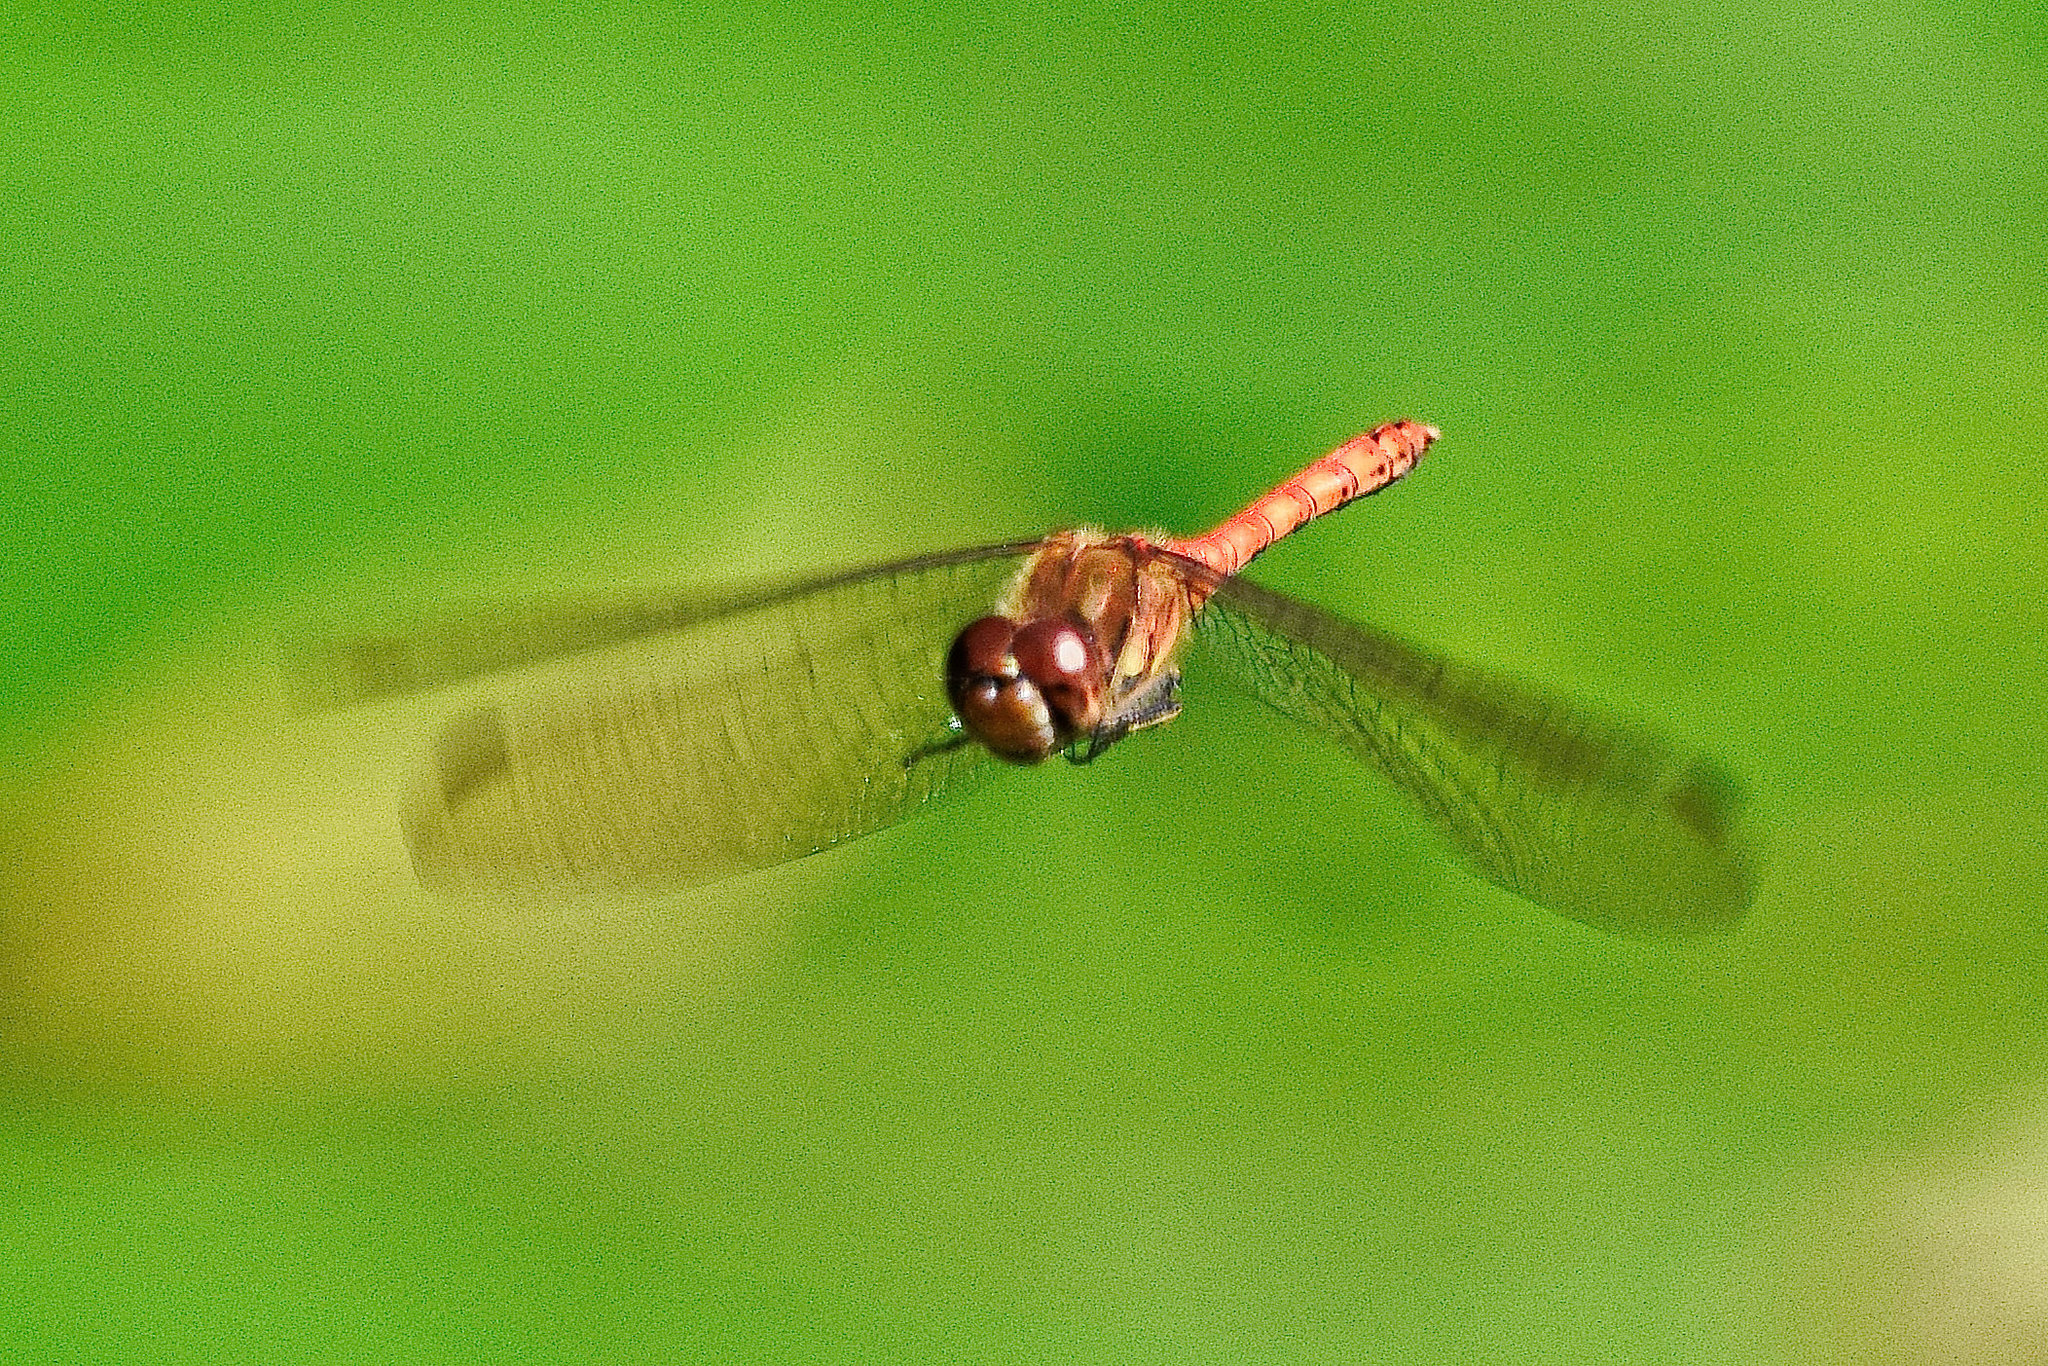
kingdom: Animalia
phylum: Arthropoda
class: Insecta
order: Odonata
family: Libellulidae
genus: Sympetrum
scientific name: Sympetrum striolatum
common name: Common darter
